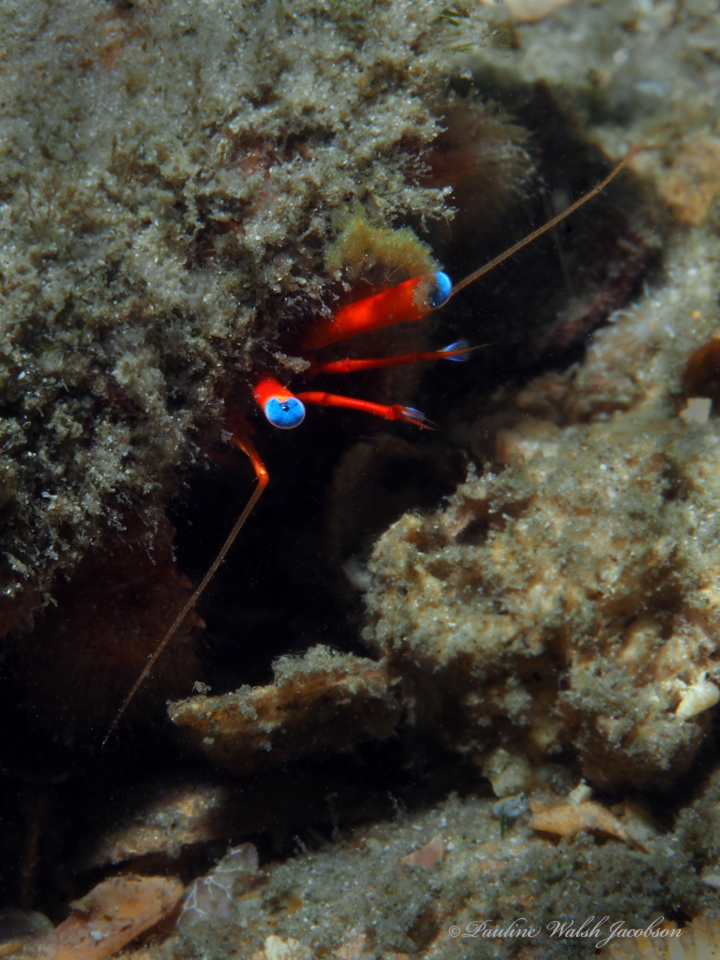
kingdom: Animalia
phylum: Arthropoda
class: Malacostraca
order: Decapoda
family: Diogenidae
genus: Paguristes
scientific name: Paguristes sericeus
